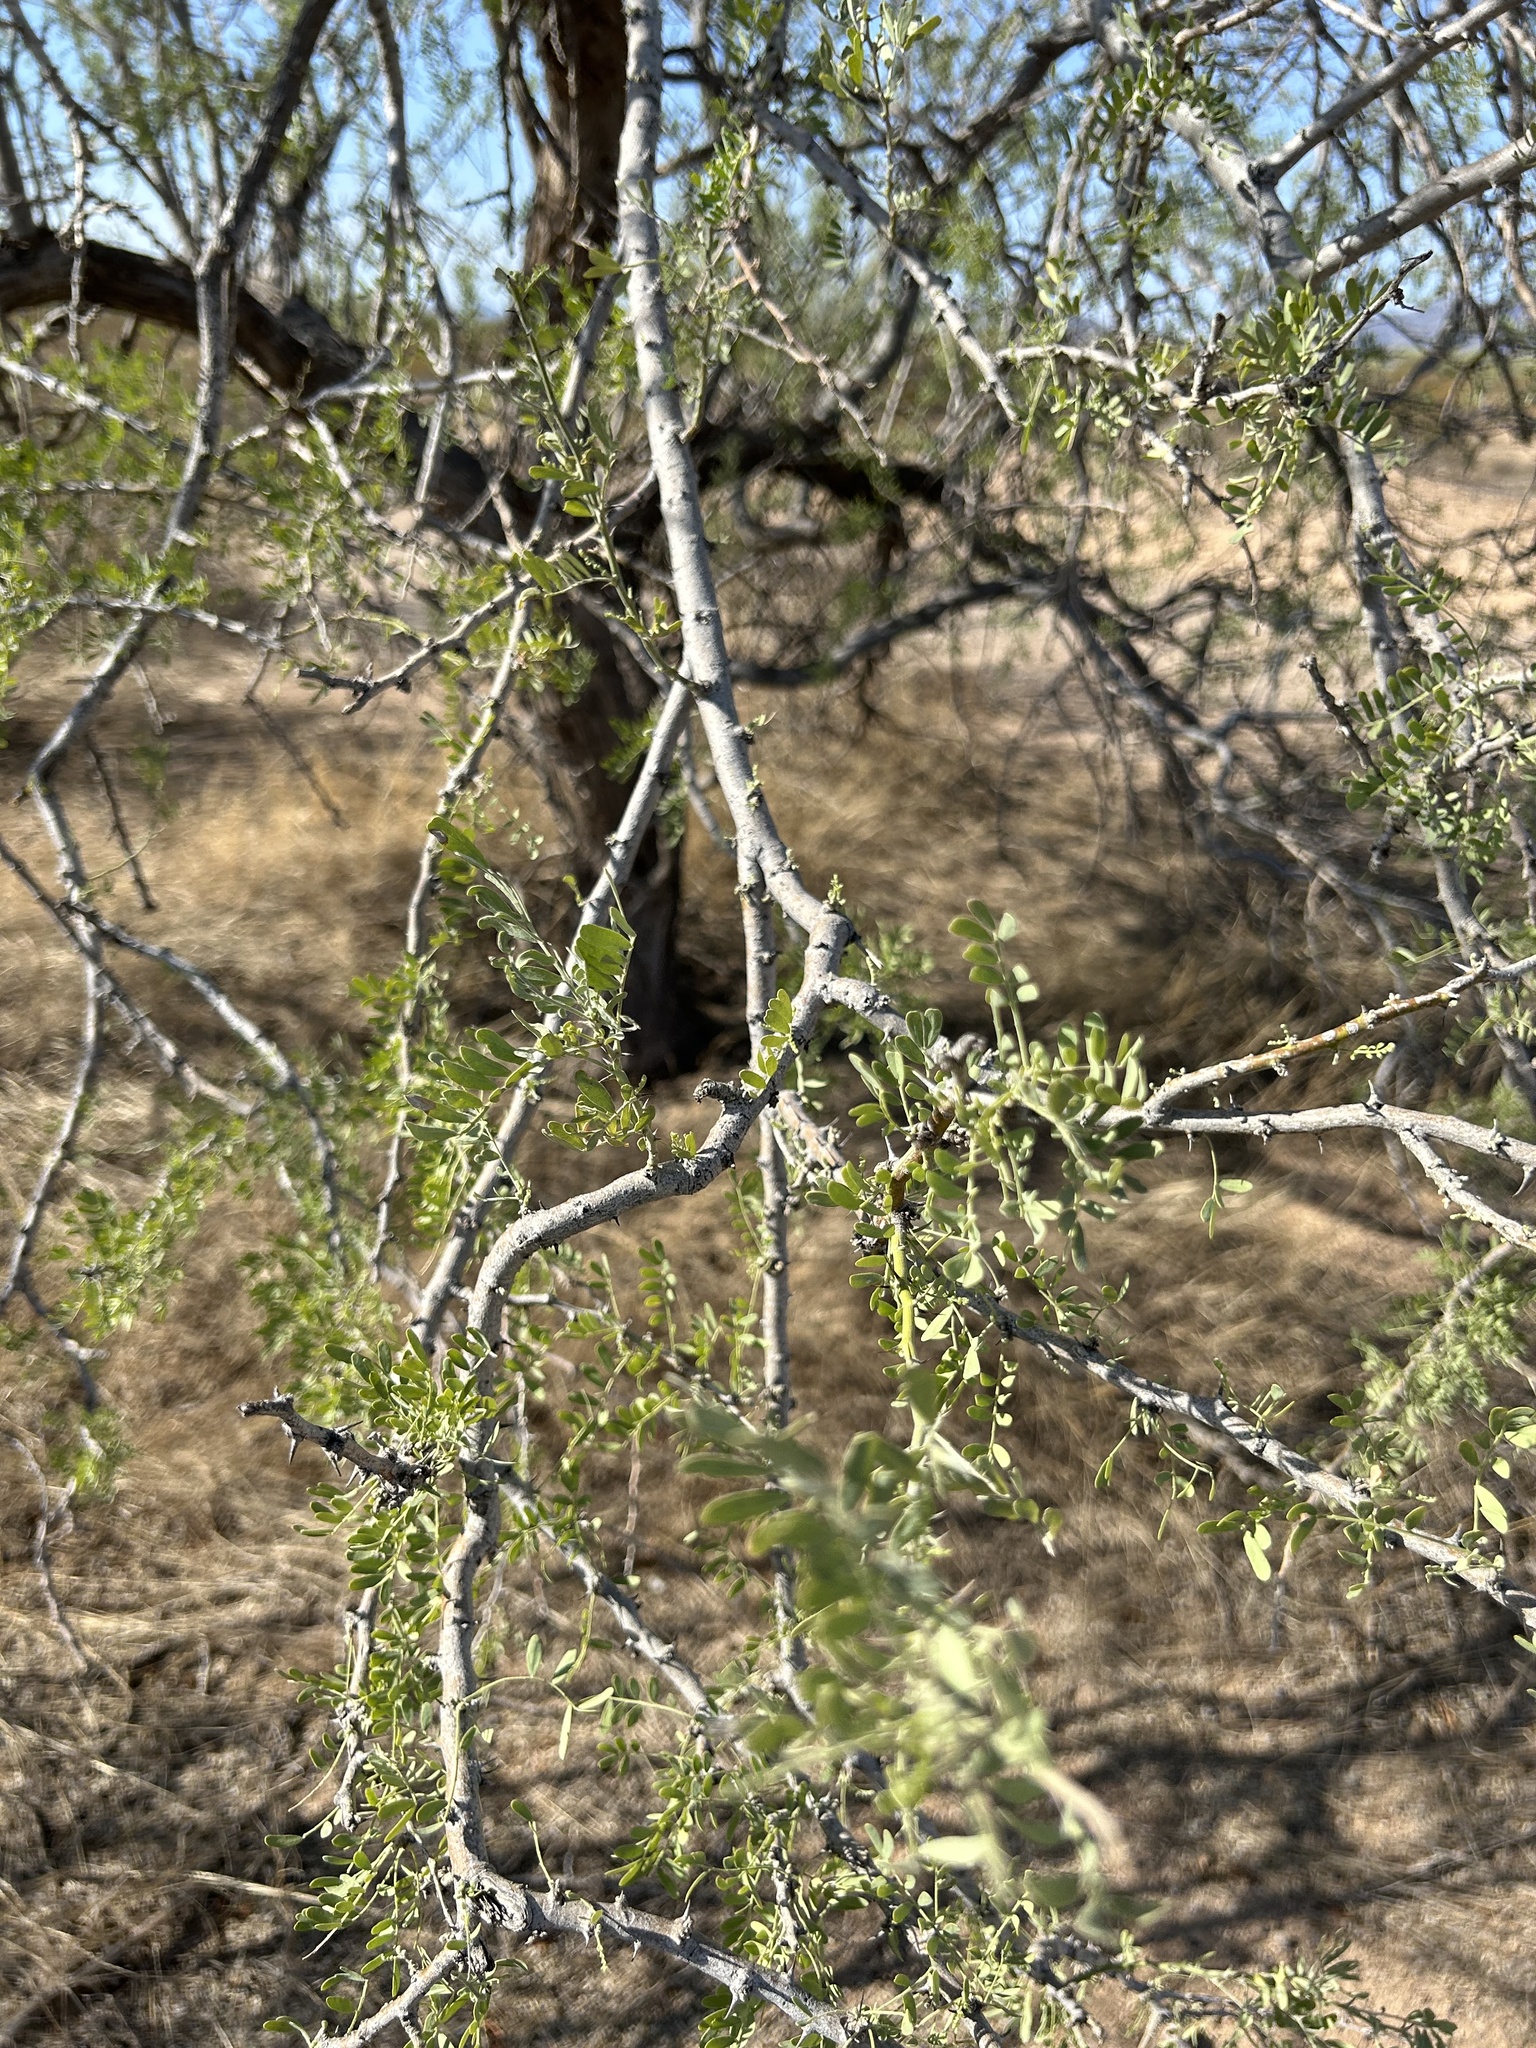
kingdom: Plantae
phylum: Tracheophyta
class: Magnoliopsida
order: Fabales
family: Fabaceae
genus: Olneya
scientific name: Olneya tesota
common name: Desert ironwood
